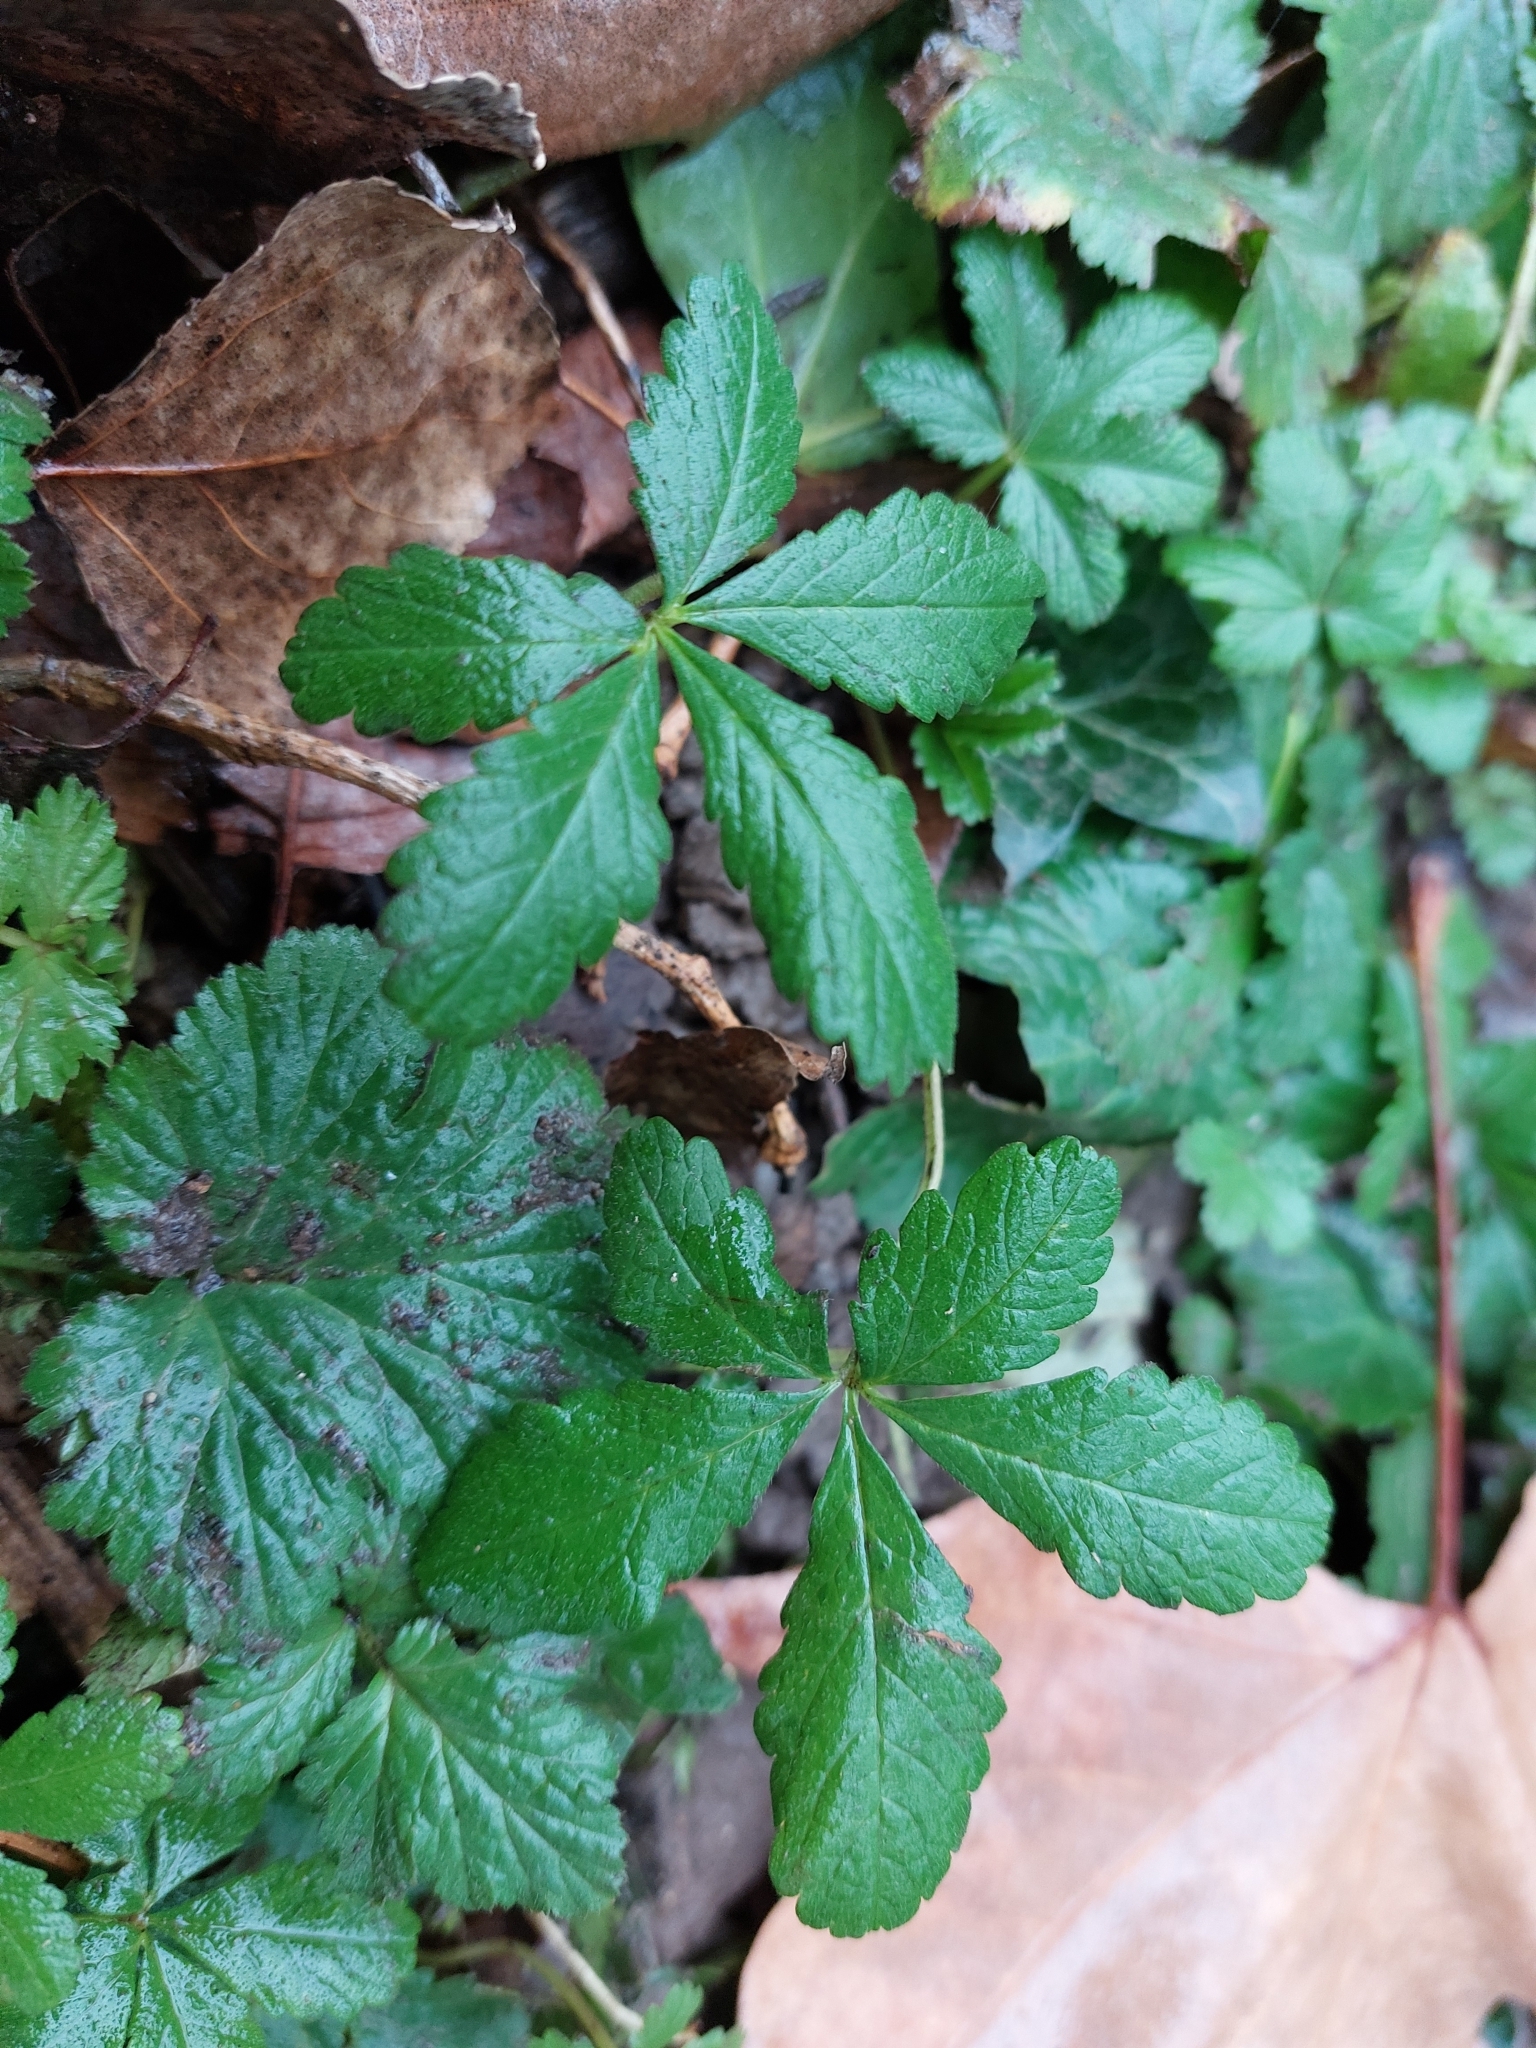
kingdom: Plantae
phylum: Tracheophyta
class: Magnoliopsida
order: Rosales
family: Rosaceae
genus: Potentilla
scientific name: Potentilla reptans
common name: Creeping cinquefoil
